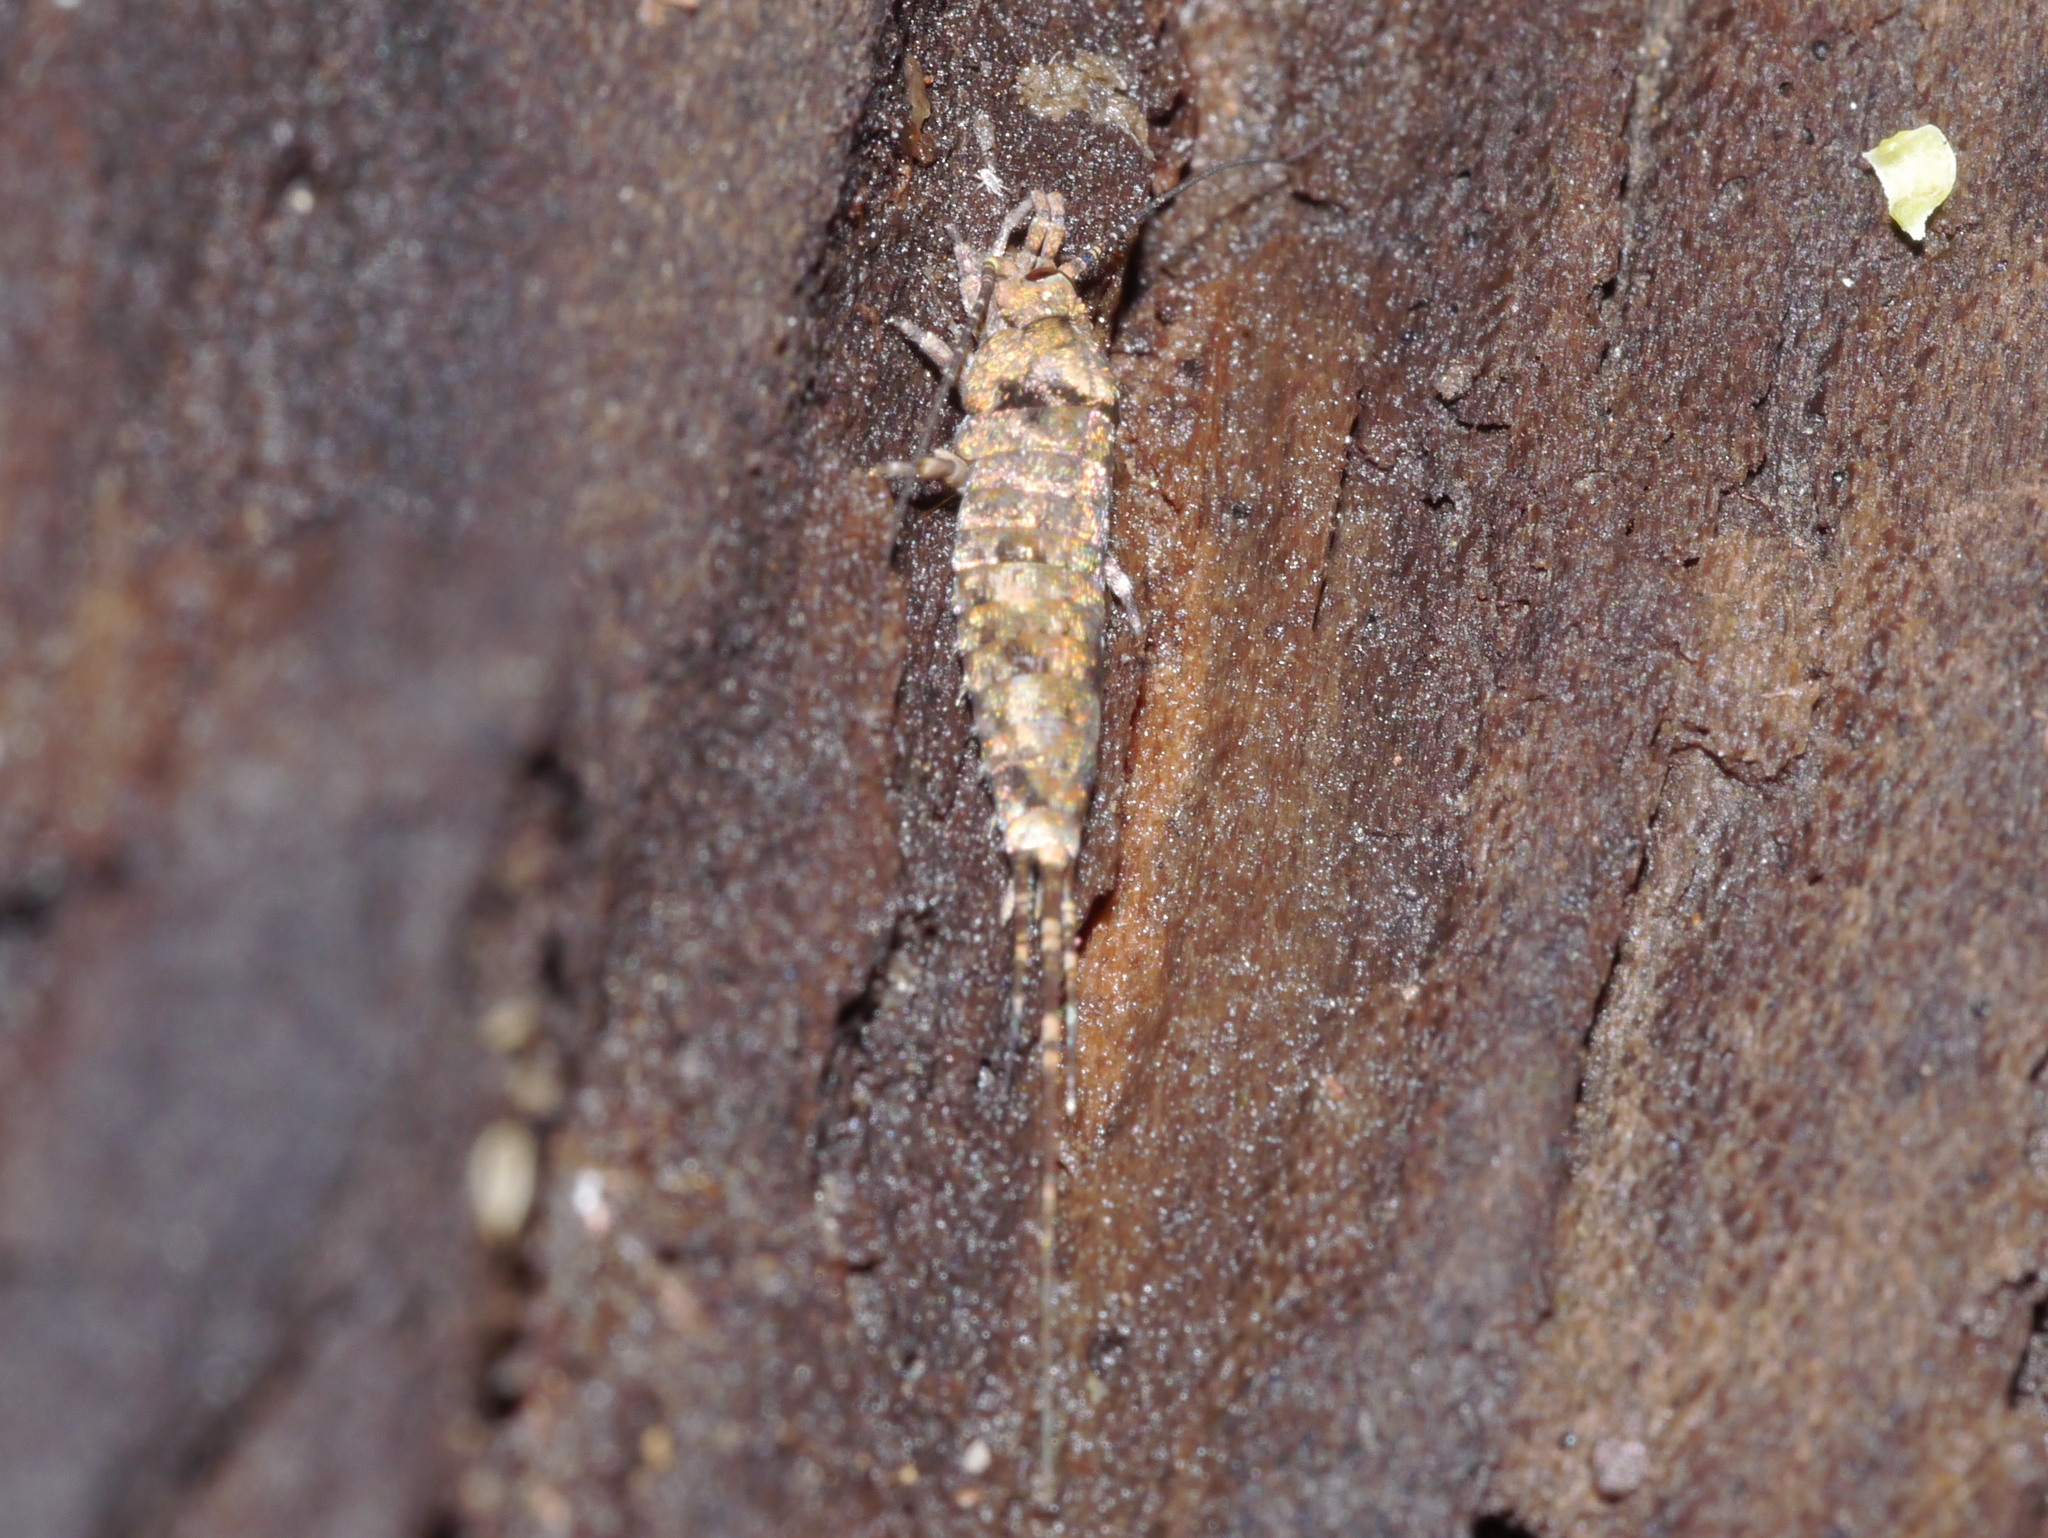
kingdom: Animalia
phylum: Arthropoda
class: Insecta
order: Archaeognatha
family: Machilidae
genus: Trigoniophthalmus
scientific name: Trigoniophthalmus alternatus
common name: Jumping bristletail
